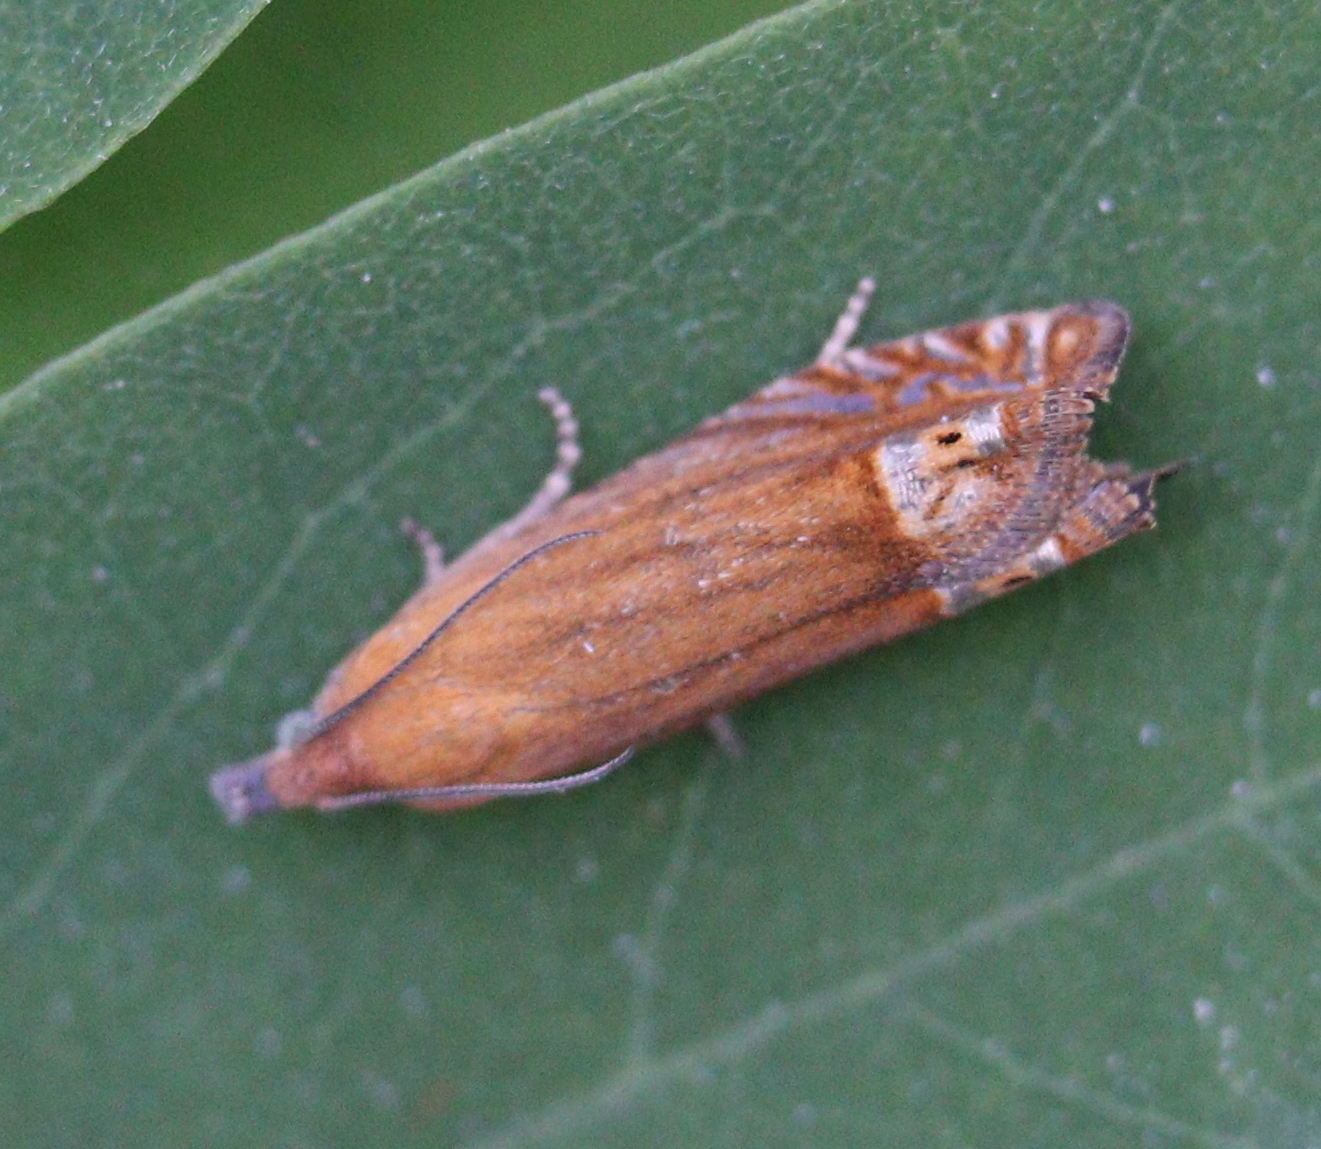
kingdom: Animalia
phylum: Arthropoda
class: Insecta
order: Lepidoptera
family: Tortricidae
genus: Lathronympha
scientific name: Lathronympha strigana
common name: Red piercer
